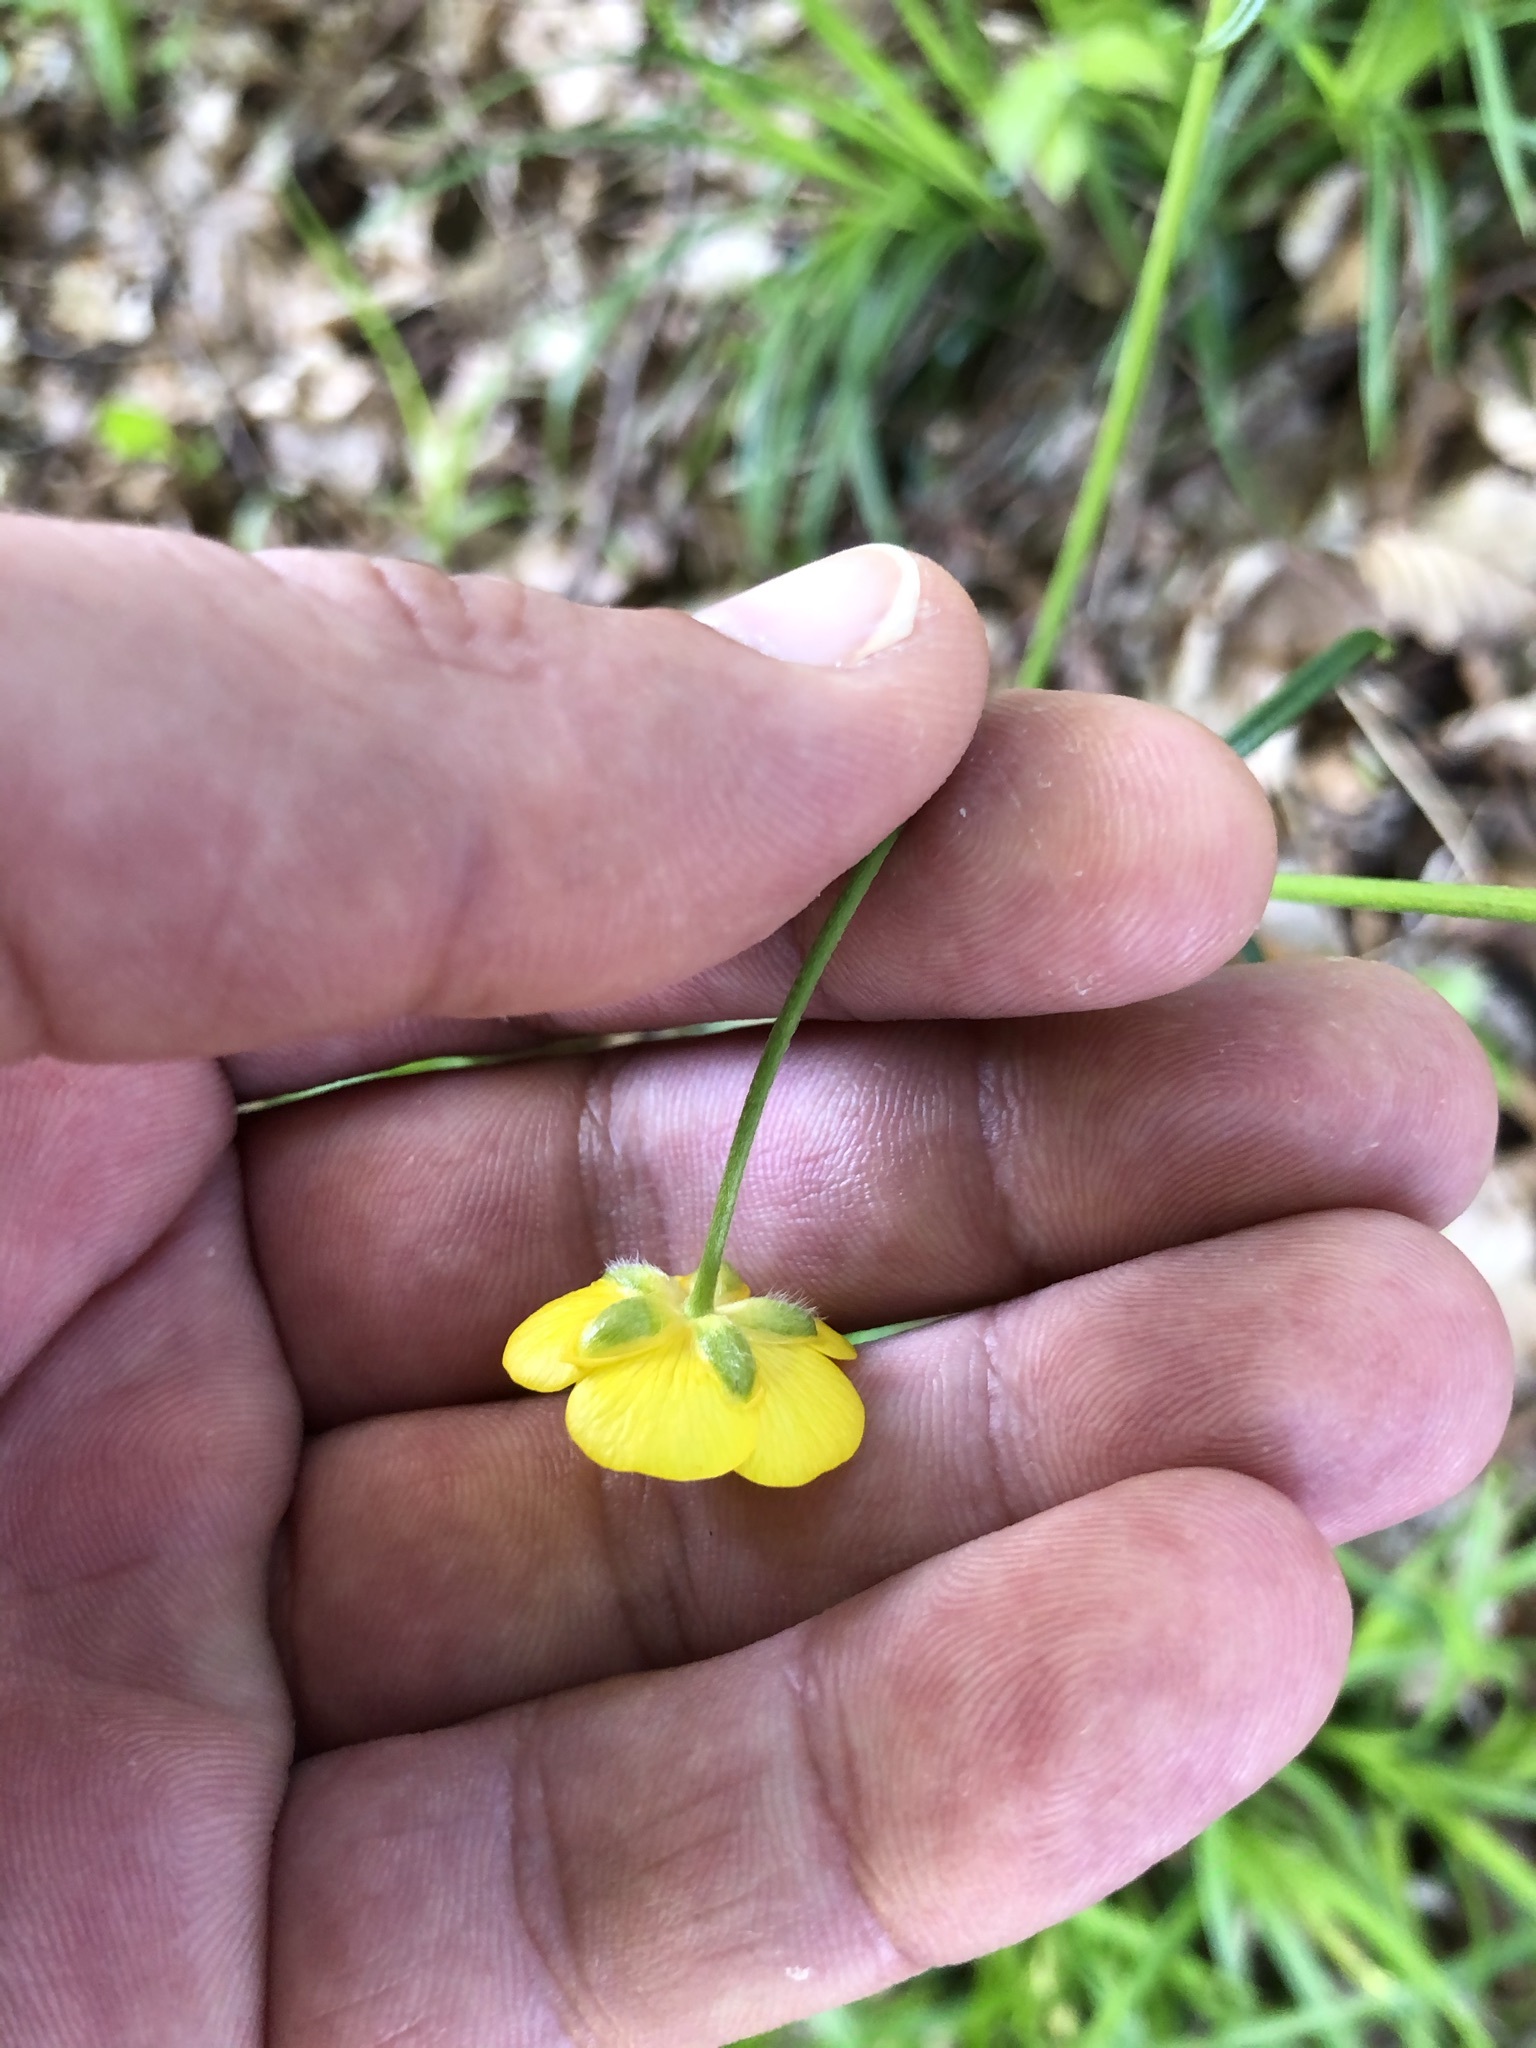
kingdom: Plantae
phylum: Tracheophyta
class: Magnoliopsida
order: Ranunculales
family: Ranunculaceae
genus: Ranunculus
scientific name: Ranunculus acris
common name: Meadow buttercup
